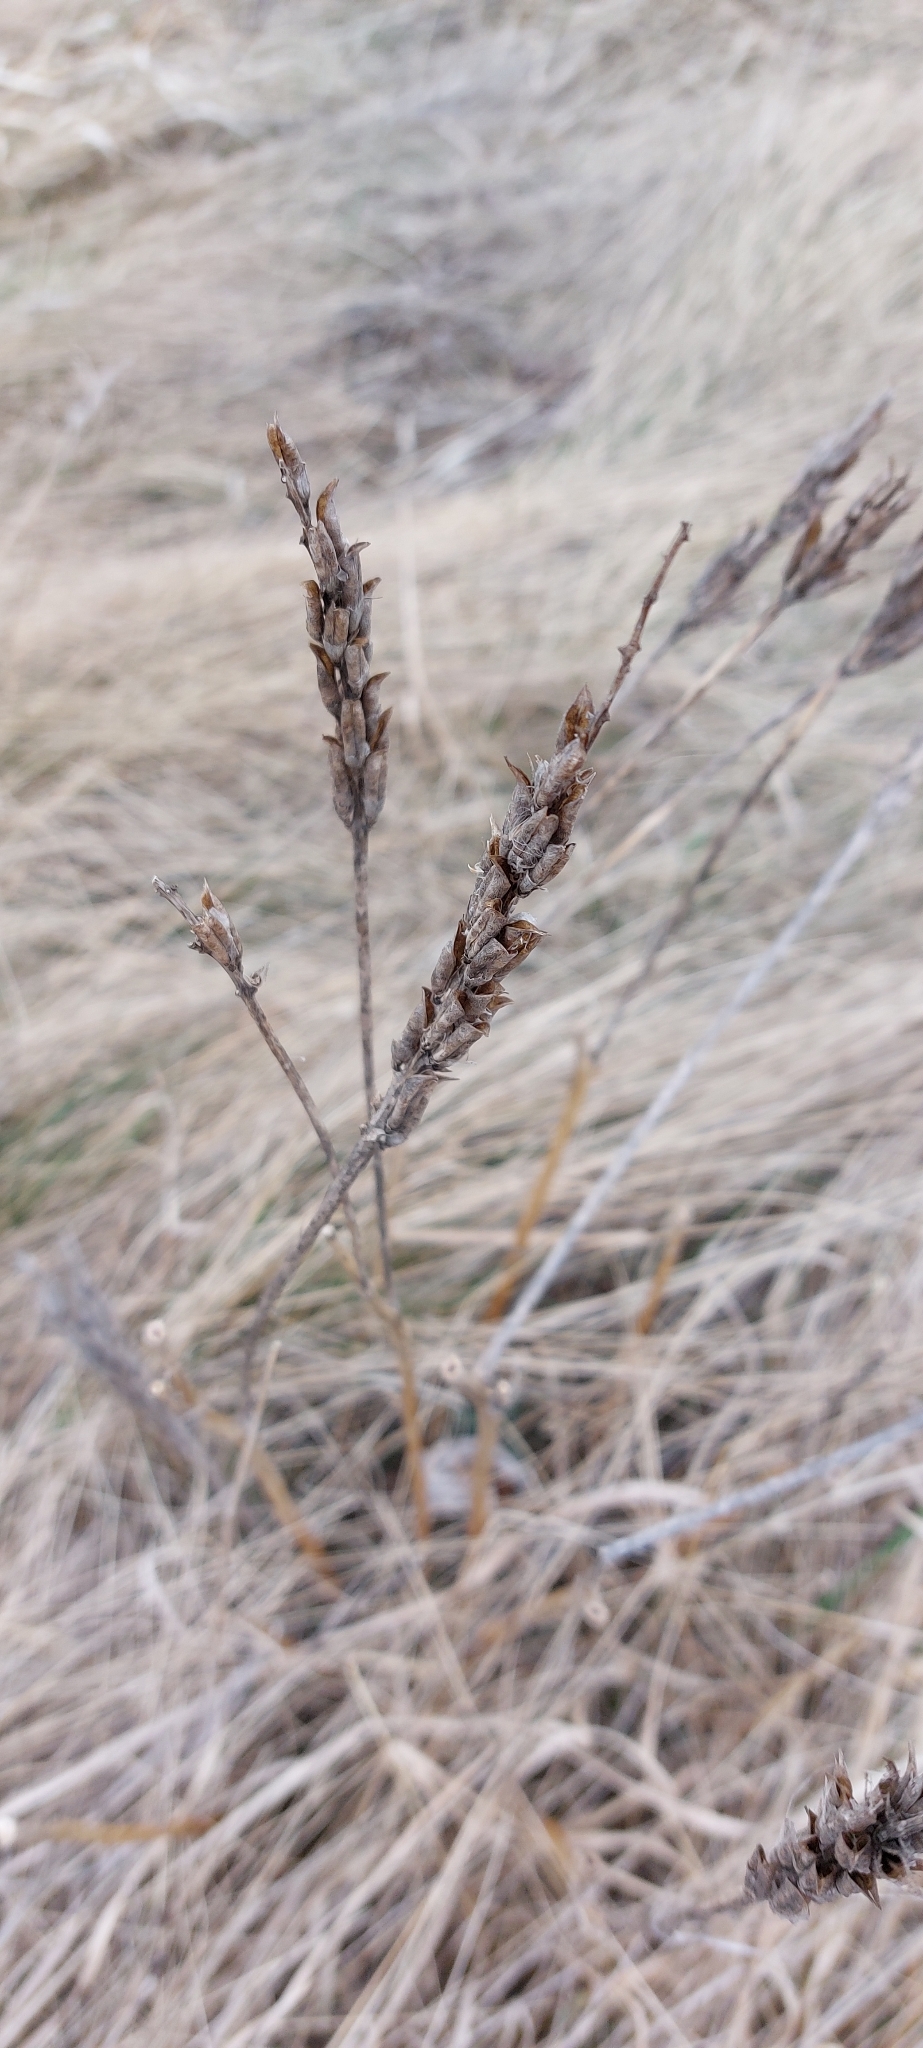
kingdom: Plantae
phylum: Tracheophyta
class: Magnoliopsida
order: Fabales
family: Fabaceae
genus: Astragalus
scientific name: Astragalus asper
